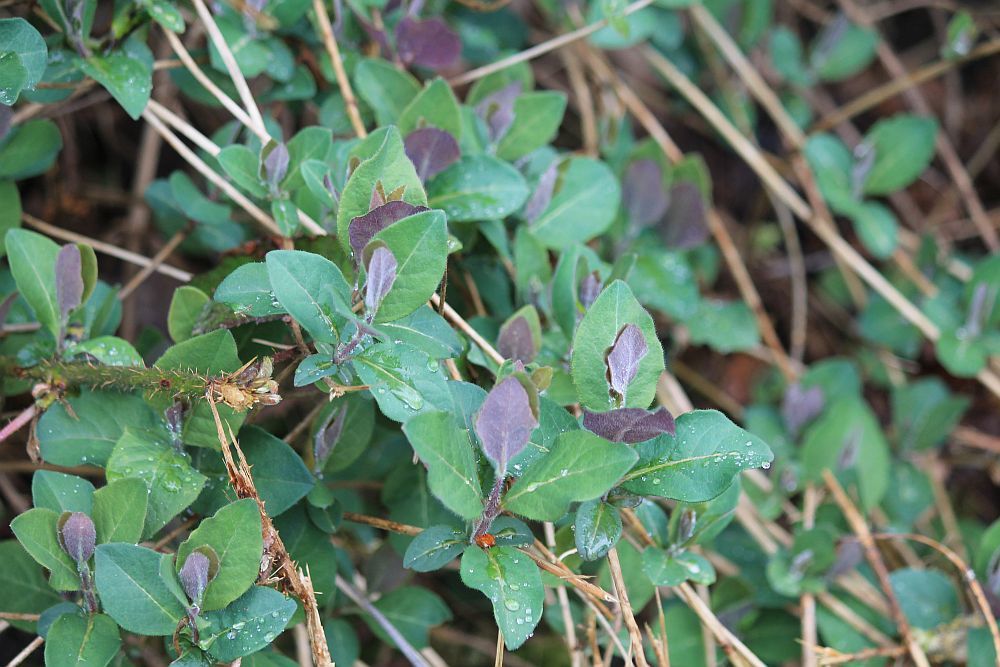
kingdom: Plantae
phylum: Tracheophyta
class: Magnoliopsida
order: Dipsacales
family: Caprifoliaceae
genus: Lonicera
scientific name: Lonicera periclymenum
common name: European honeysuckle
